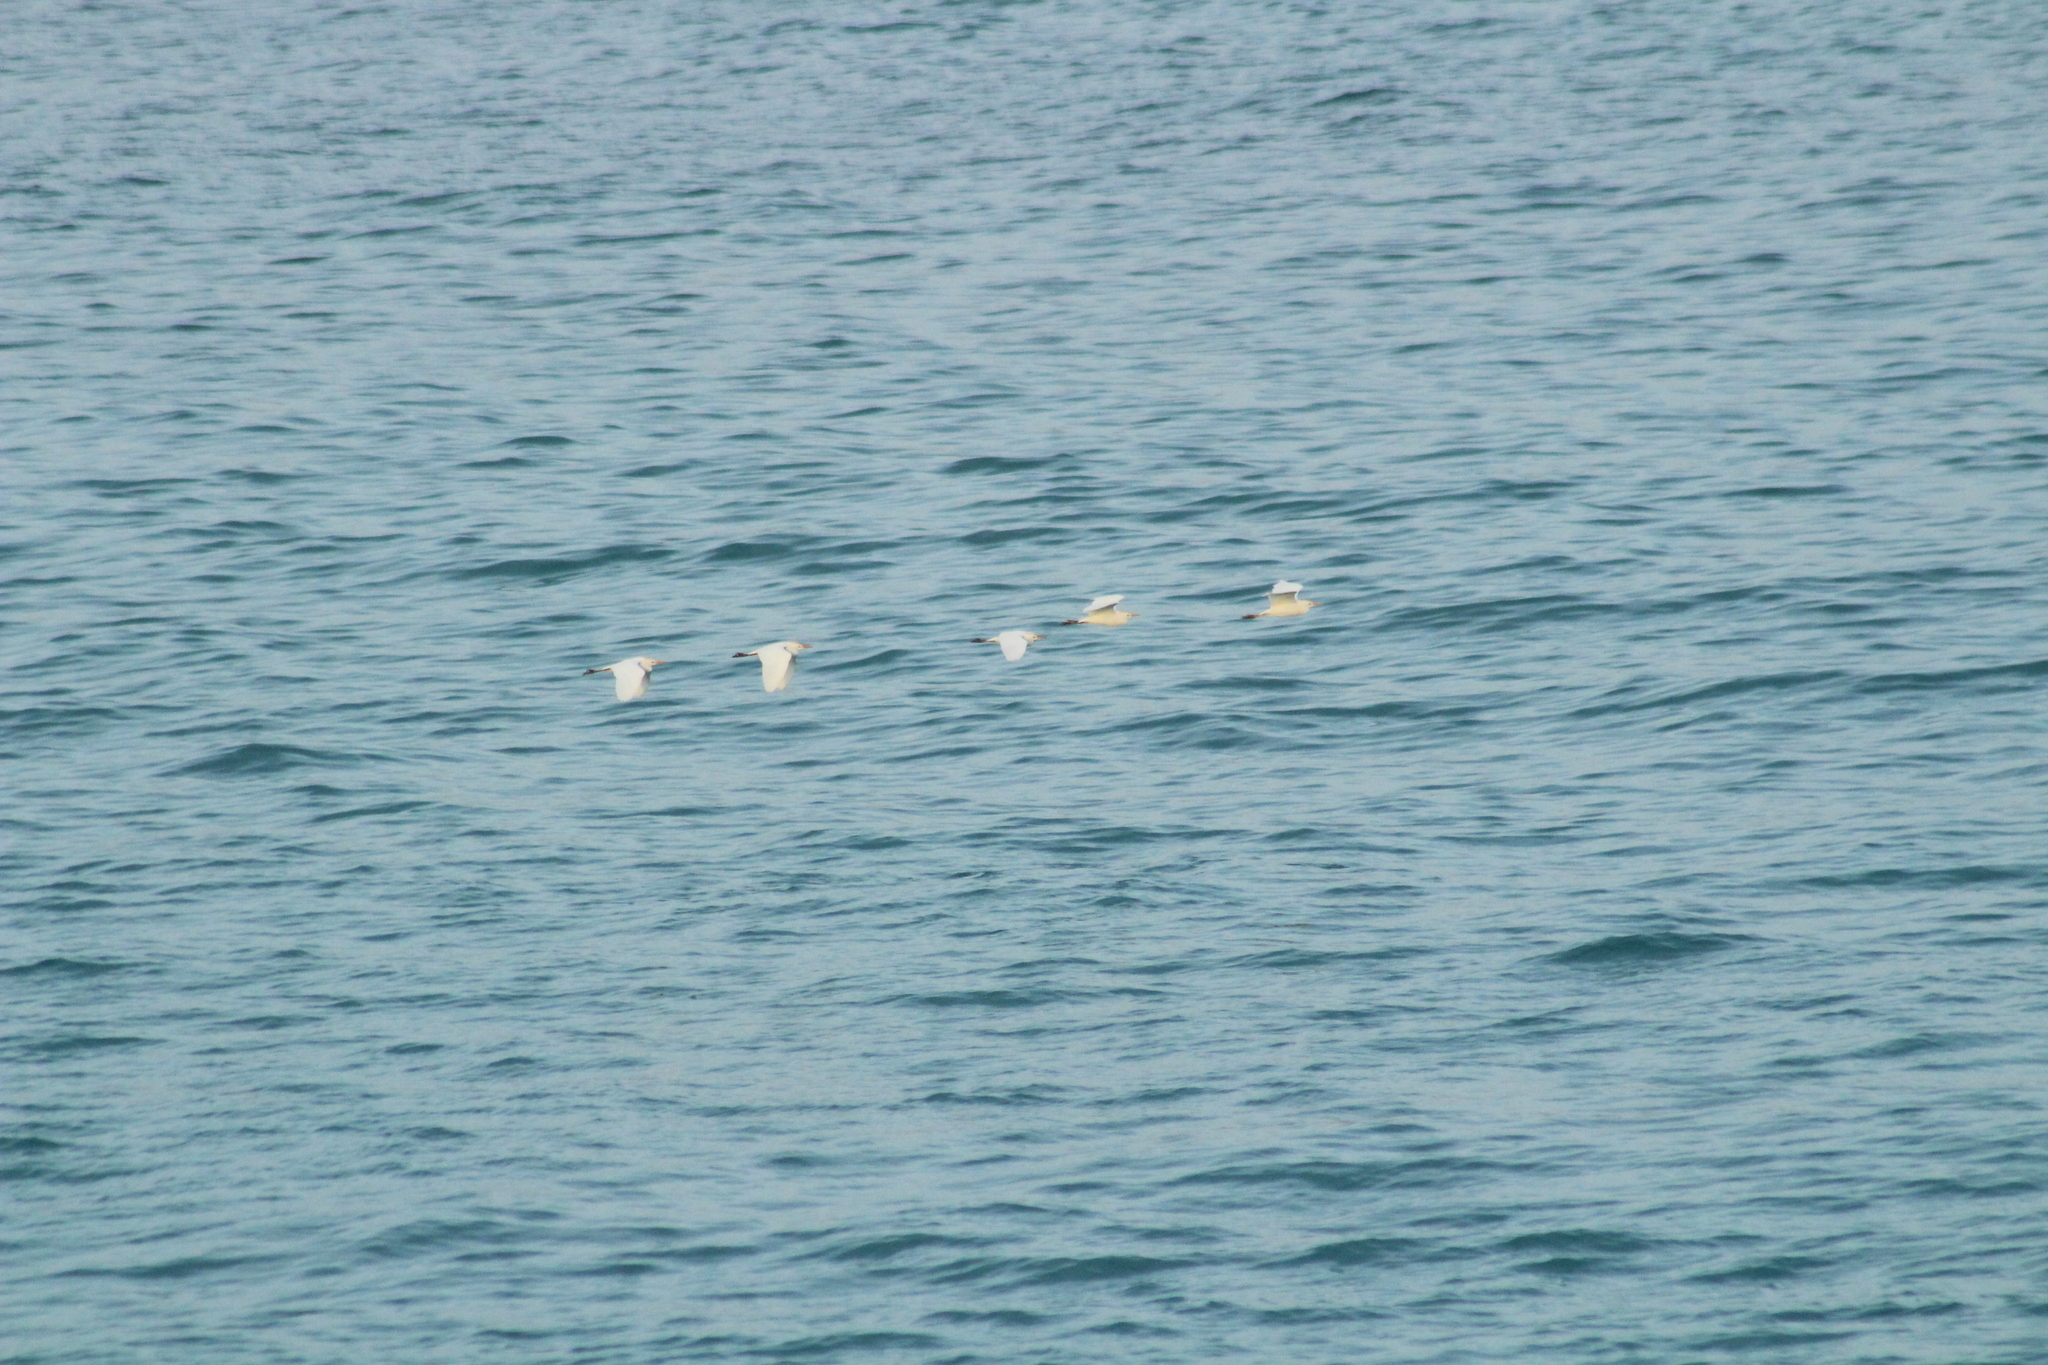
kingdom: Animalia
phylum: Chordata
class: Aves
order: Pelecaniformes
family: Ardeidae
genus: Bubulcus
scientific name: Bubulcus ibis
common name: Cattle egret
